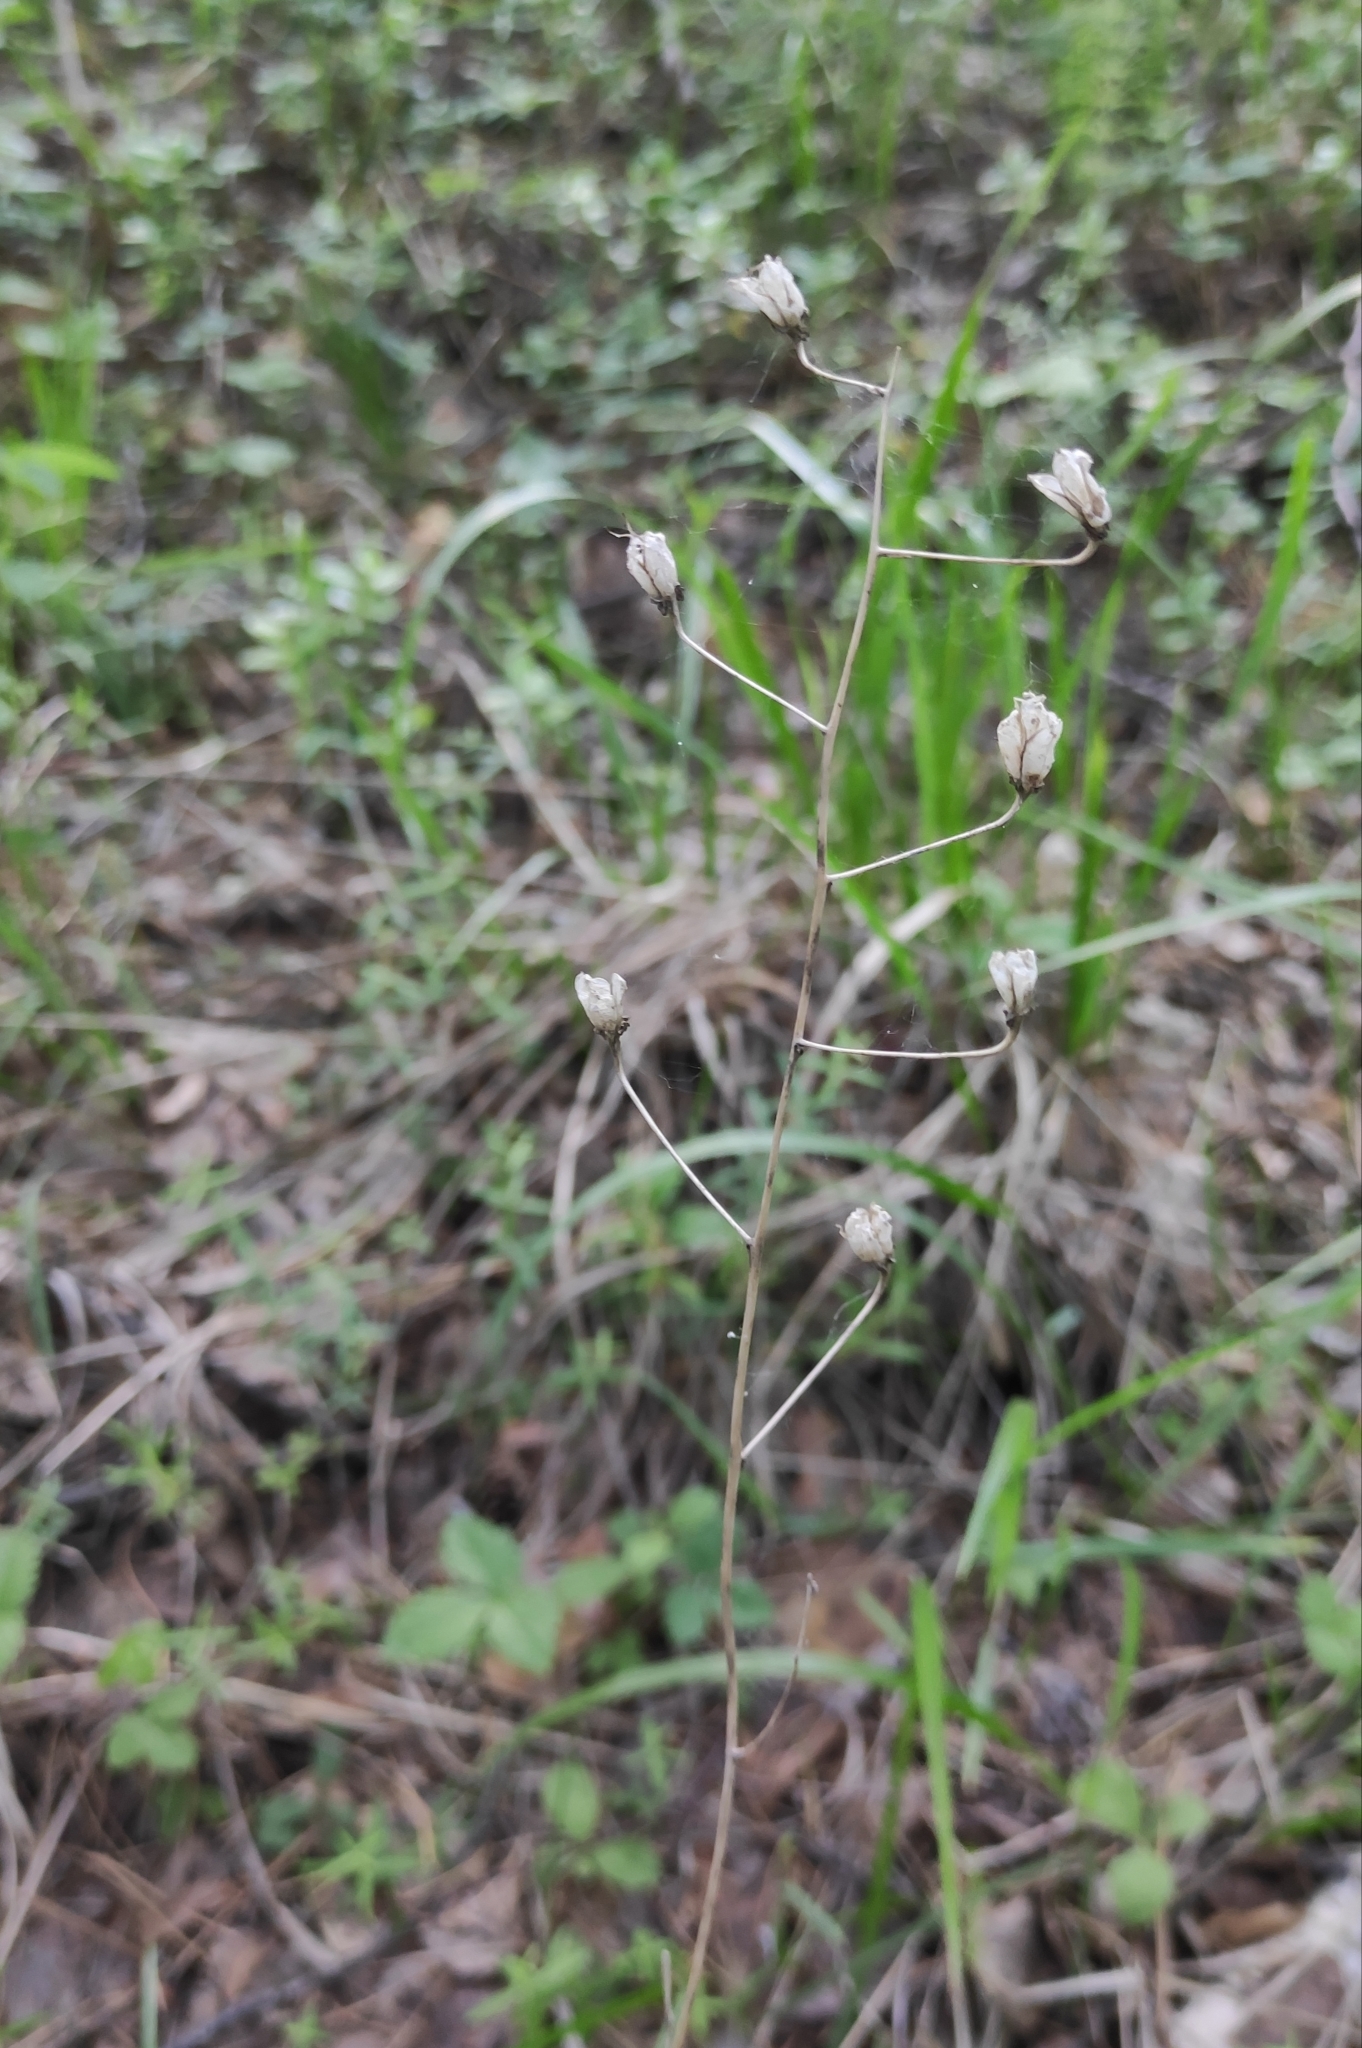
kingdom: Plantae
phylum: Tracheophyta
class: Liliopsida
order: Liliales
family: Melanthiaceae
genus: Anticlea
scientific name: Anticlea sibirica
